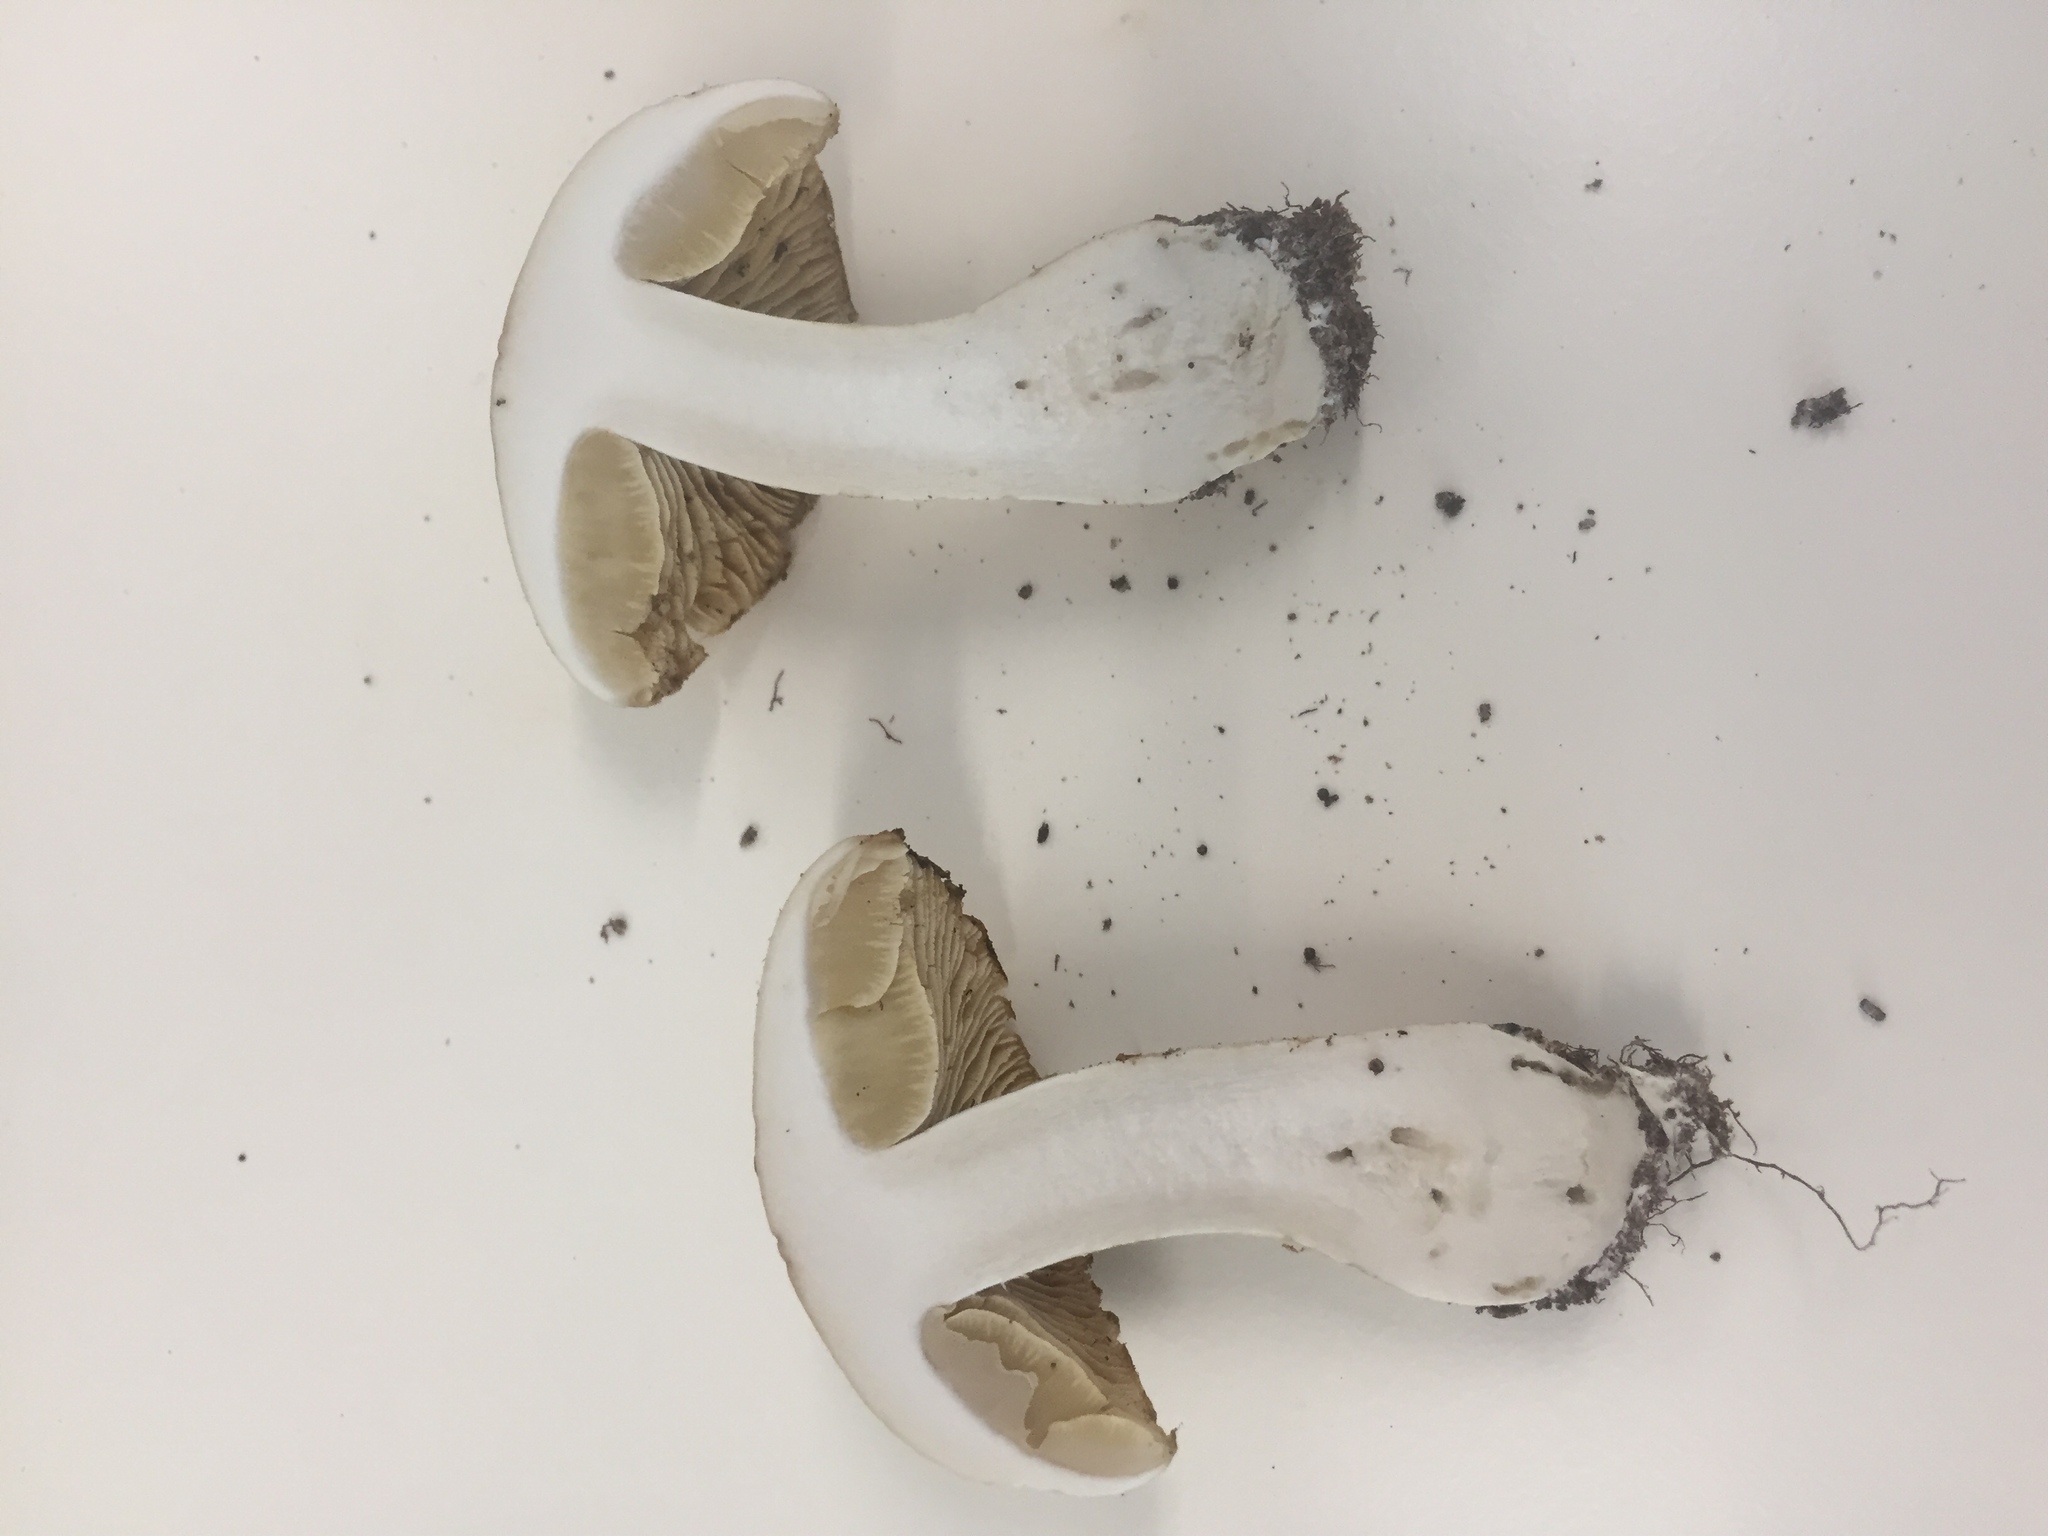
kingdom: Fungi
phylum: Basidiomycota
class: Agaricomycetes
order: Agaricales
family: Cortinariaceae
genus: Thaxterogaster
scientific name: Thaxterogaster mariae
